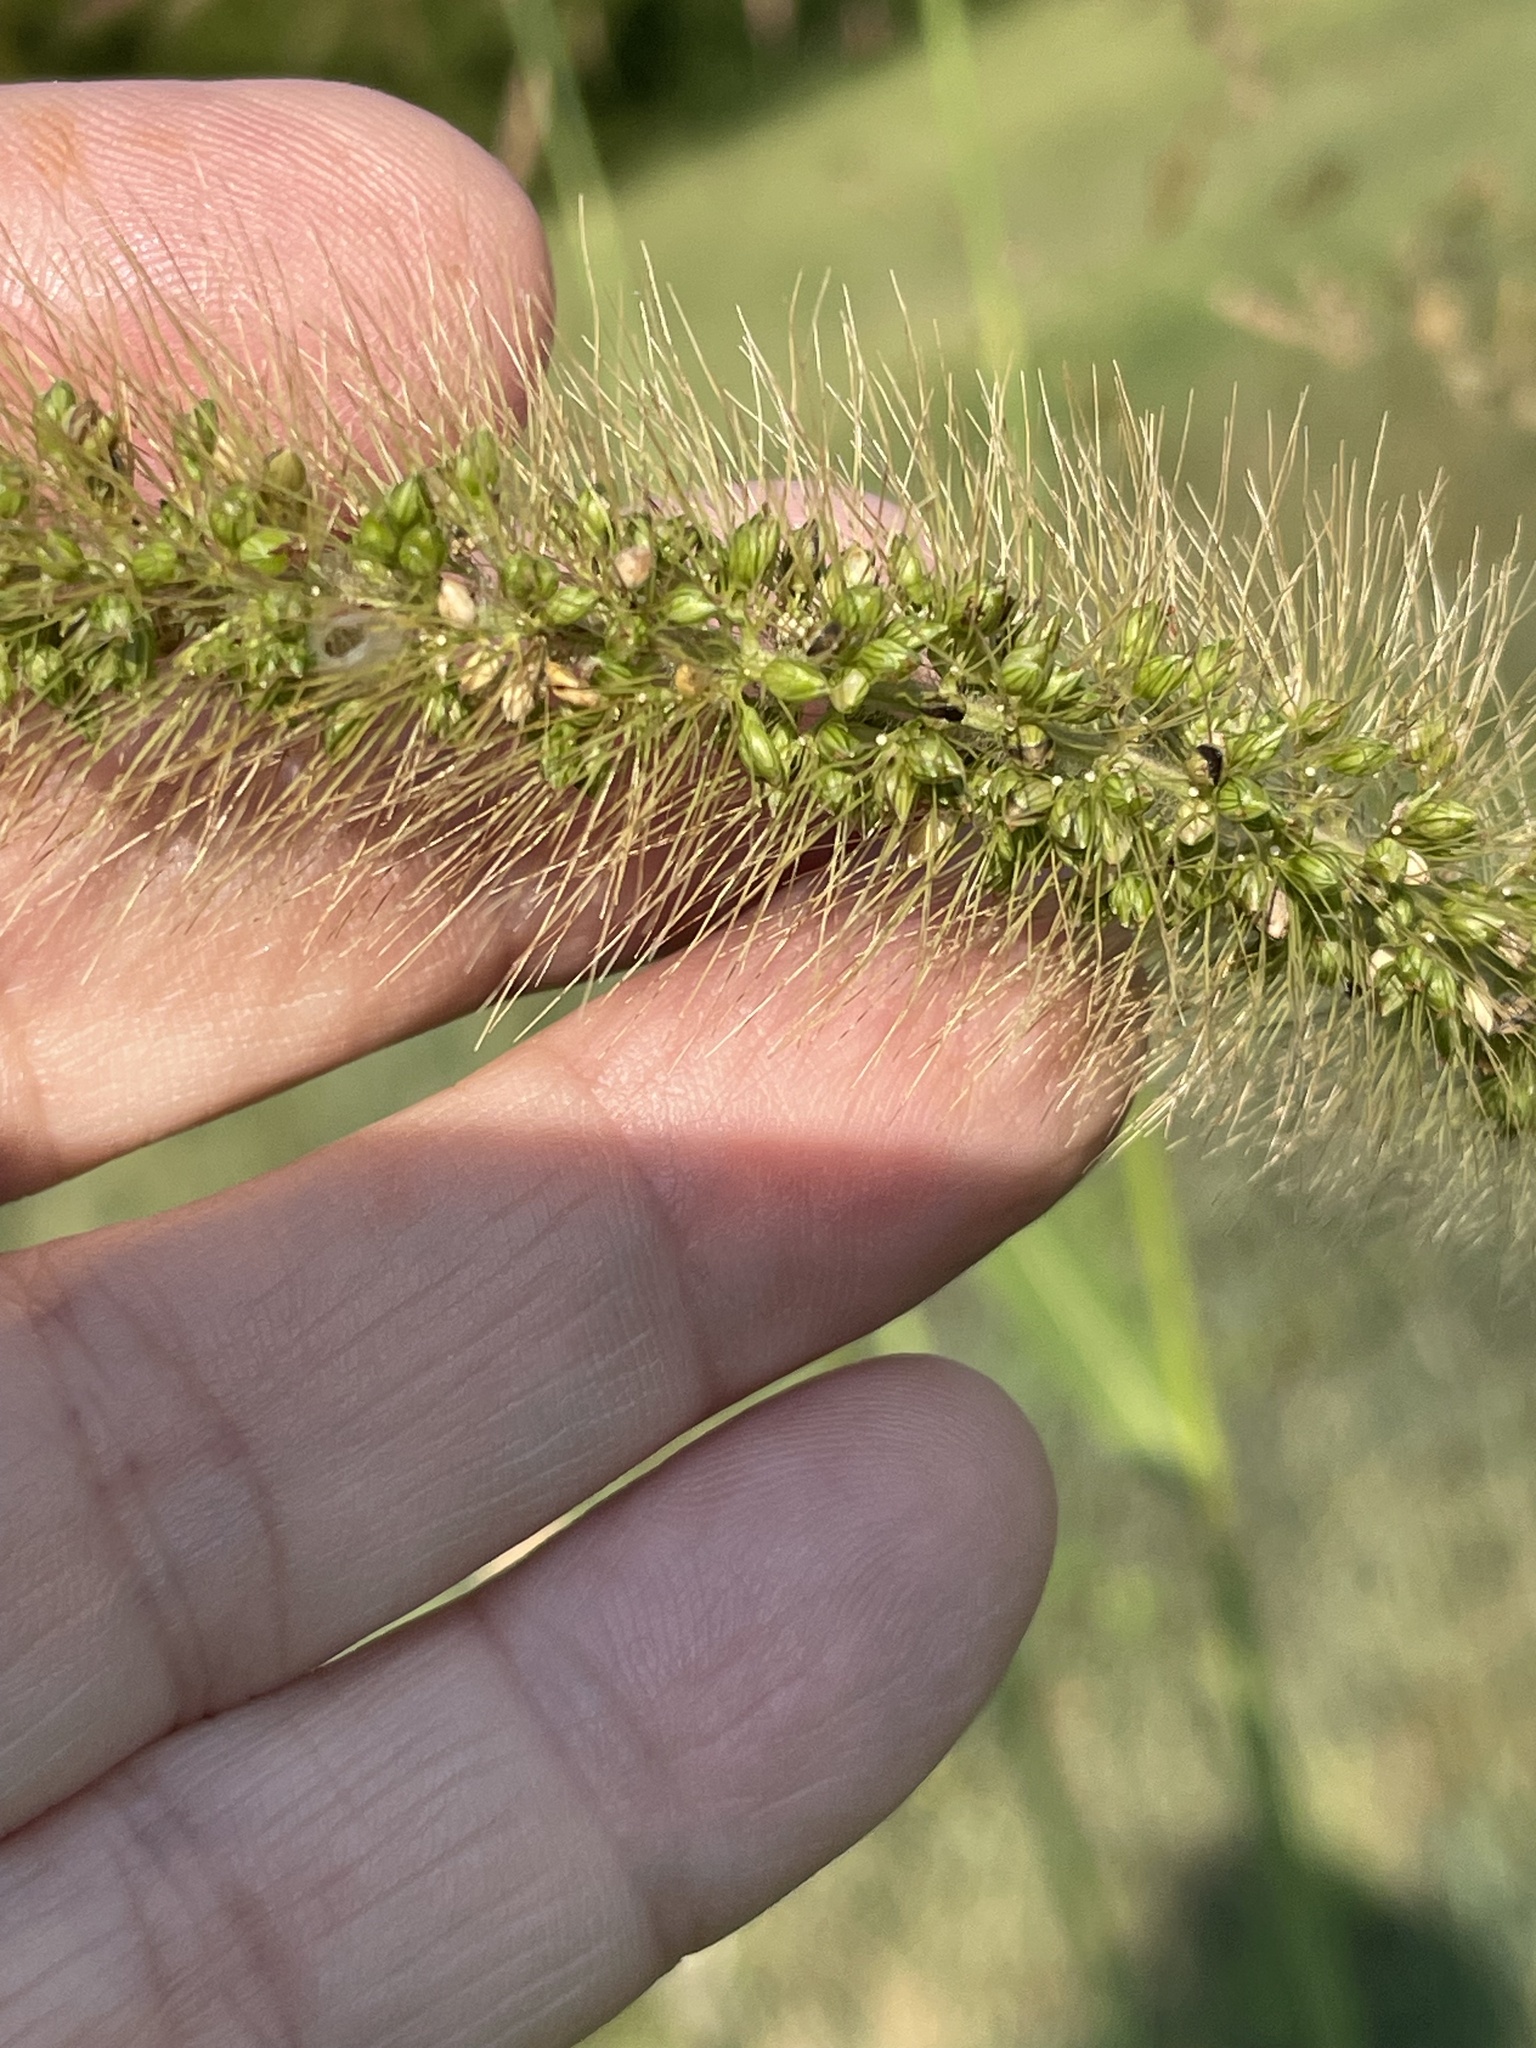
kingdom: Plantae
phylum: Tracheophyta
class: Liliopsida
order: Poales
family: Poaceae
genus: Setaria
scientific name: Setaria faberi
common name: Nodding bristle-grass
